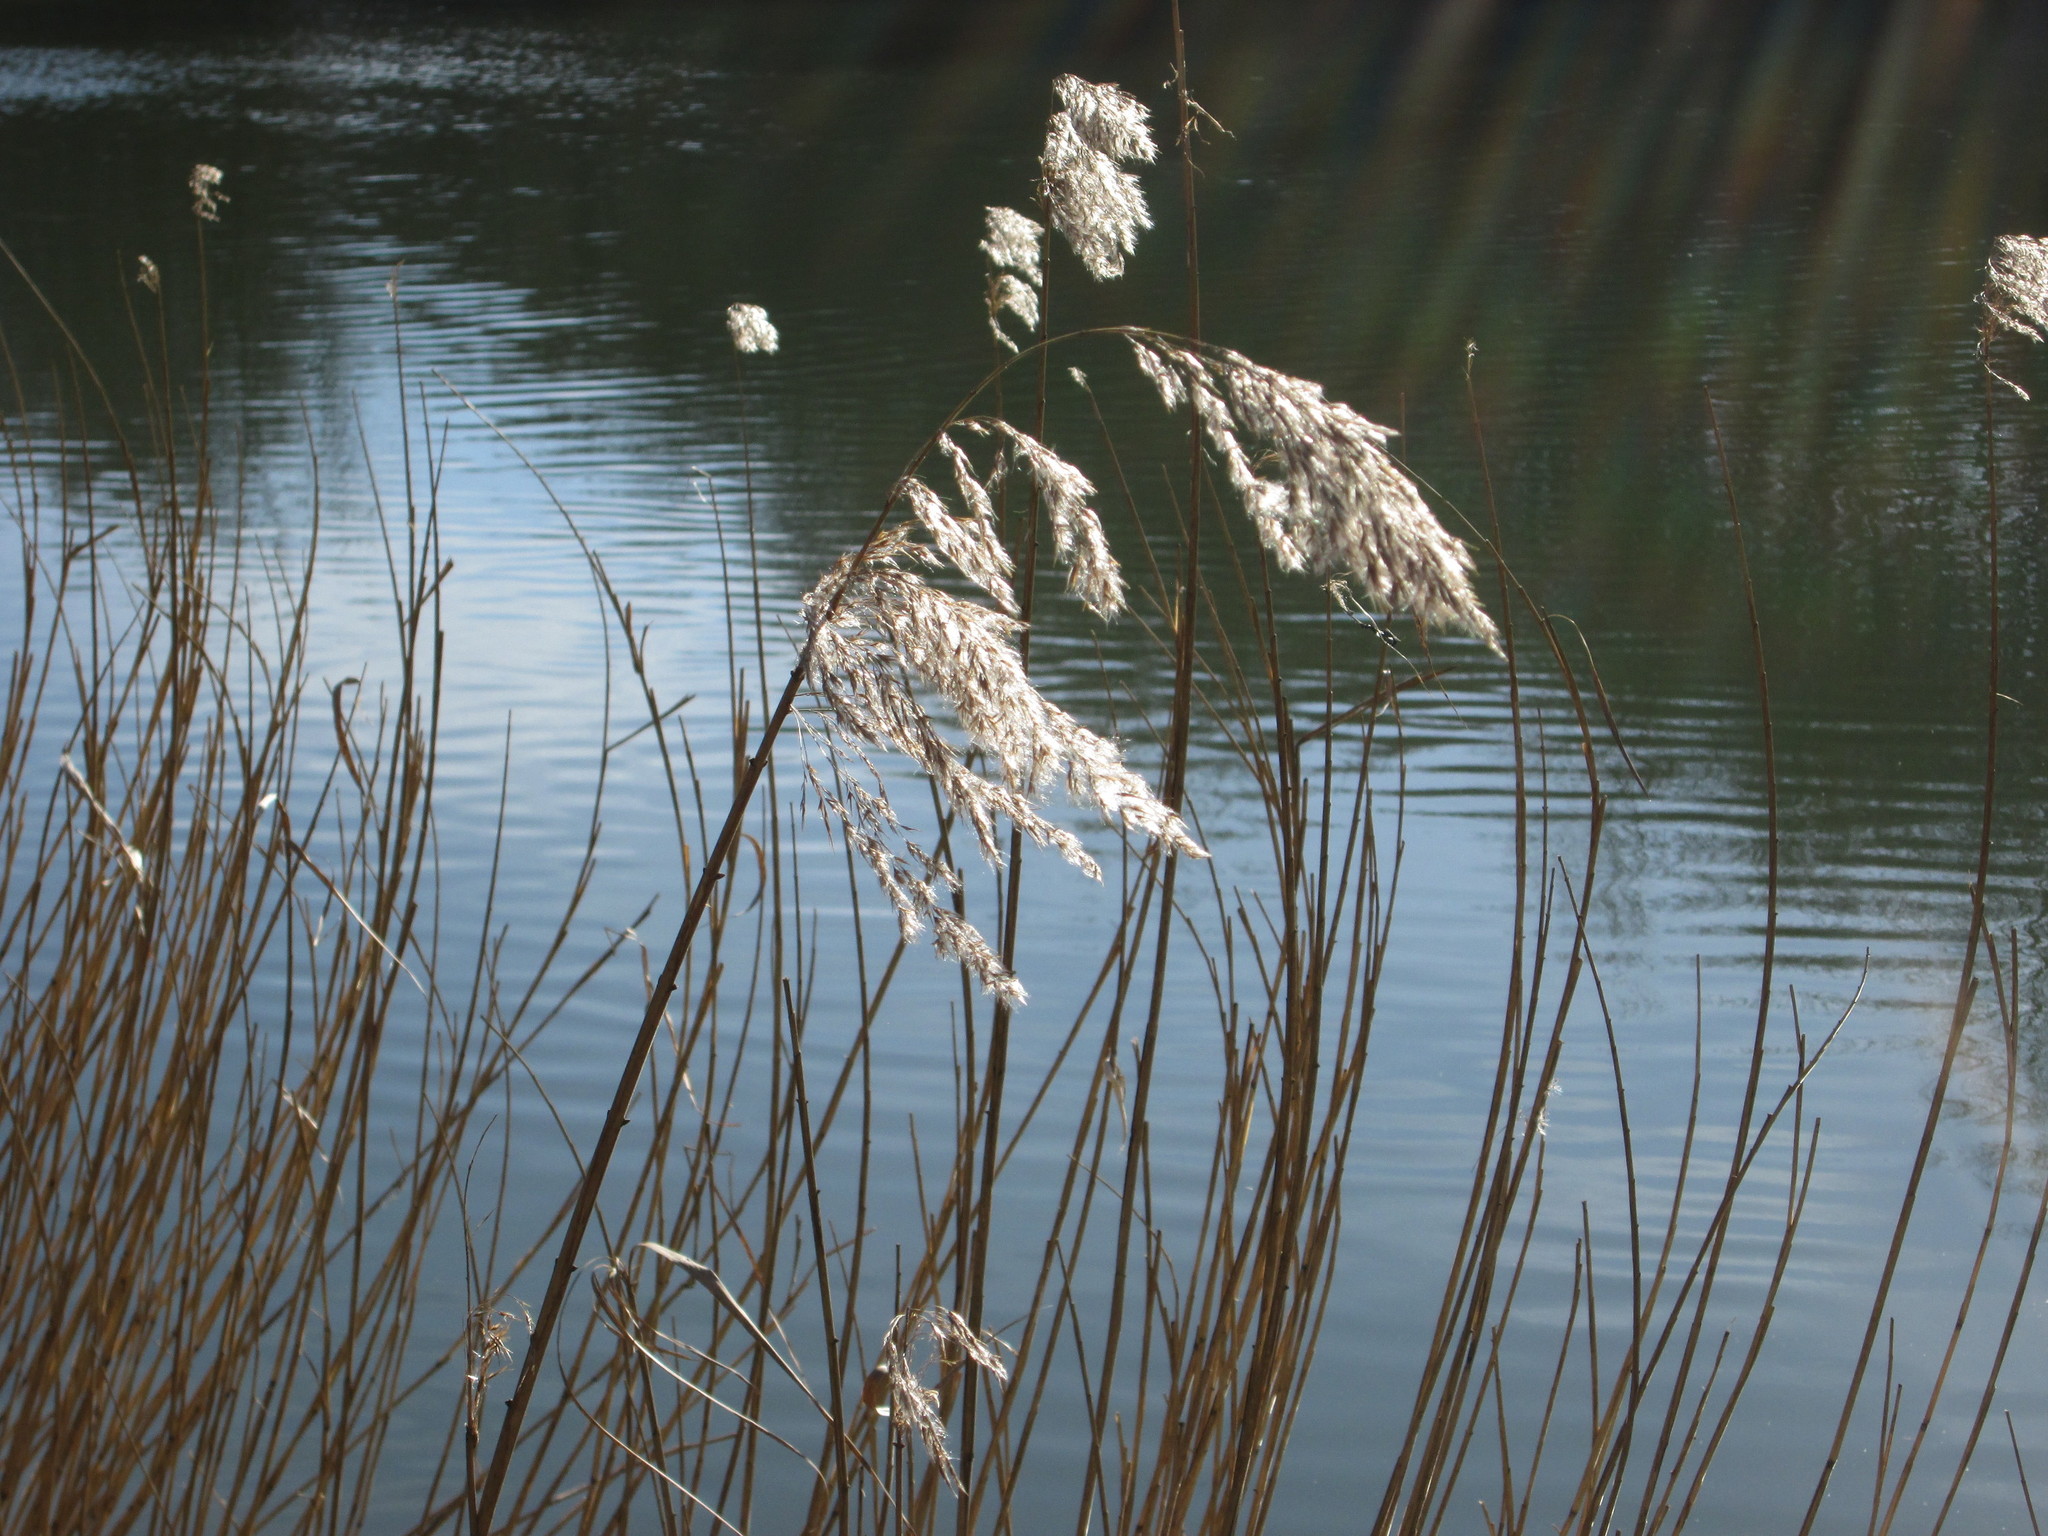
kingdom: Plantae
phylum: Tracheophyta
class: Liliopsida
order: Poales
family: Poaceae
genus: Phragmites
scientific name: Phragmites australis
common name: Common reed
